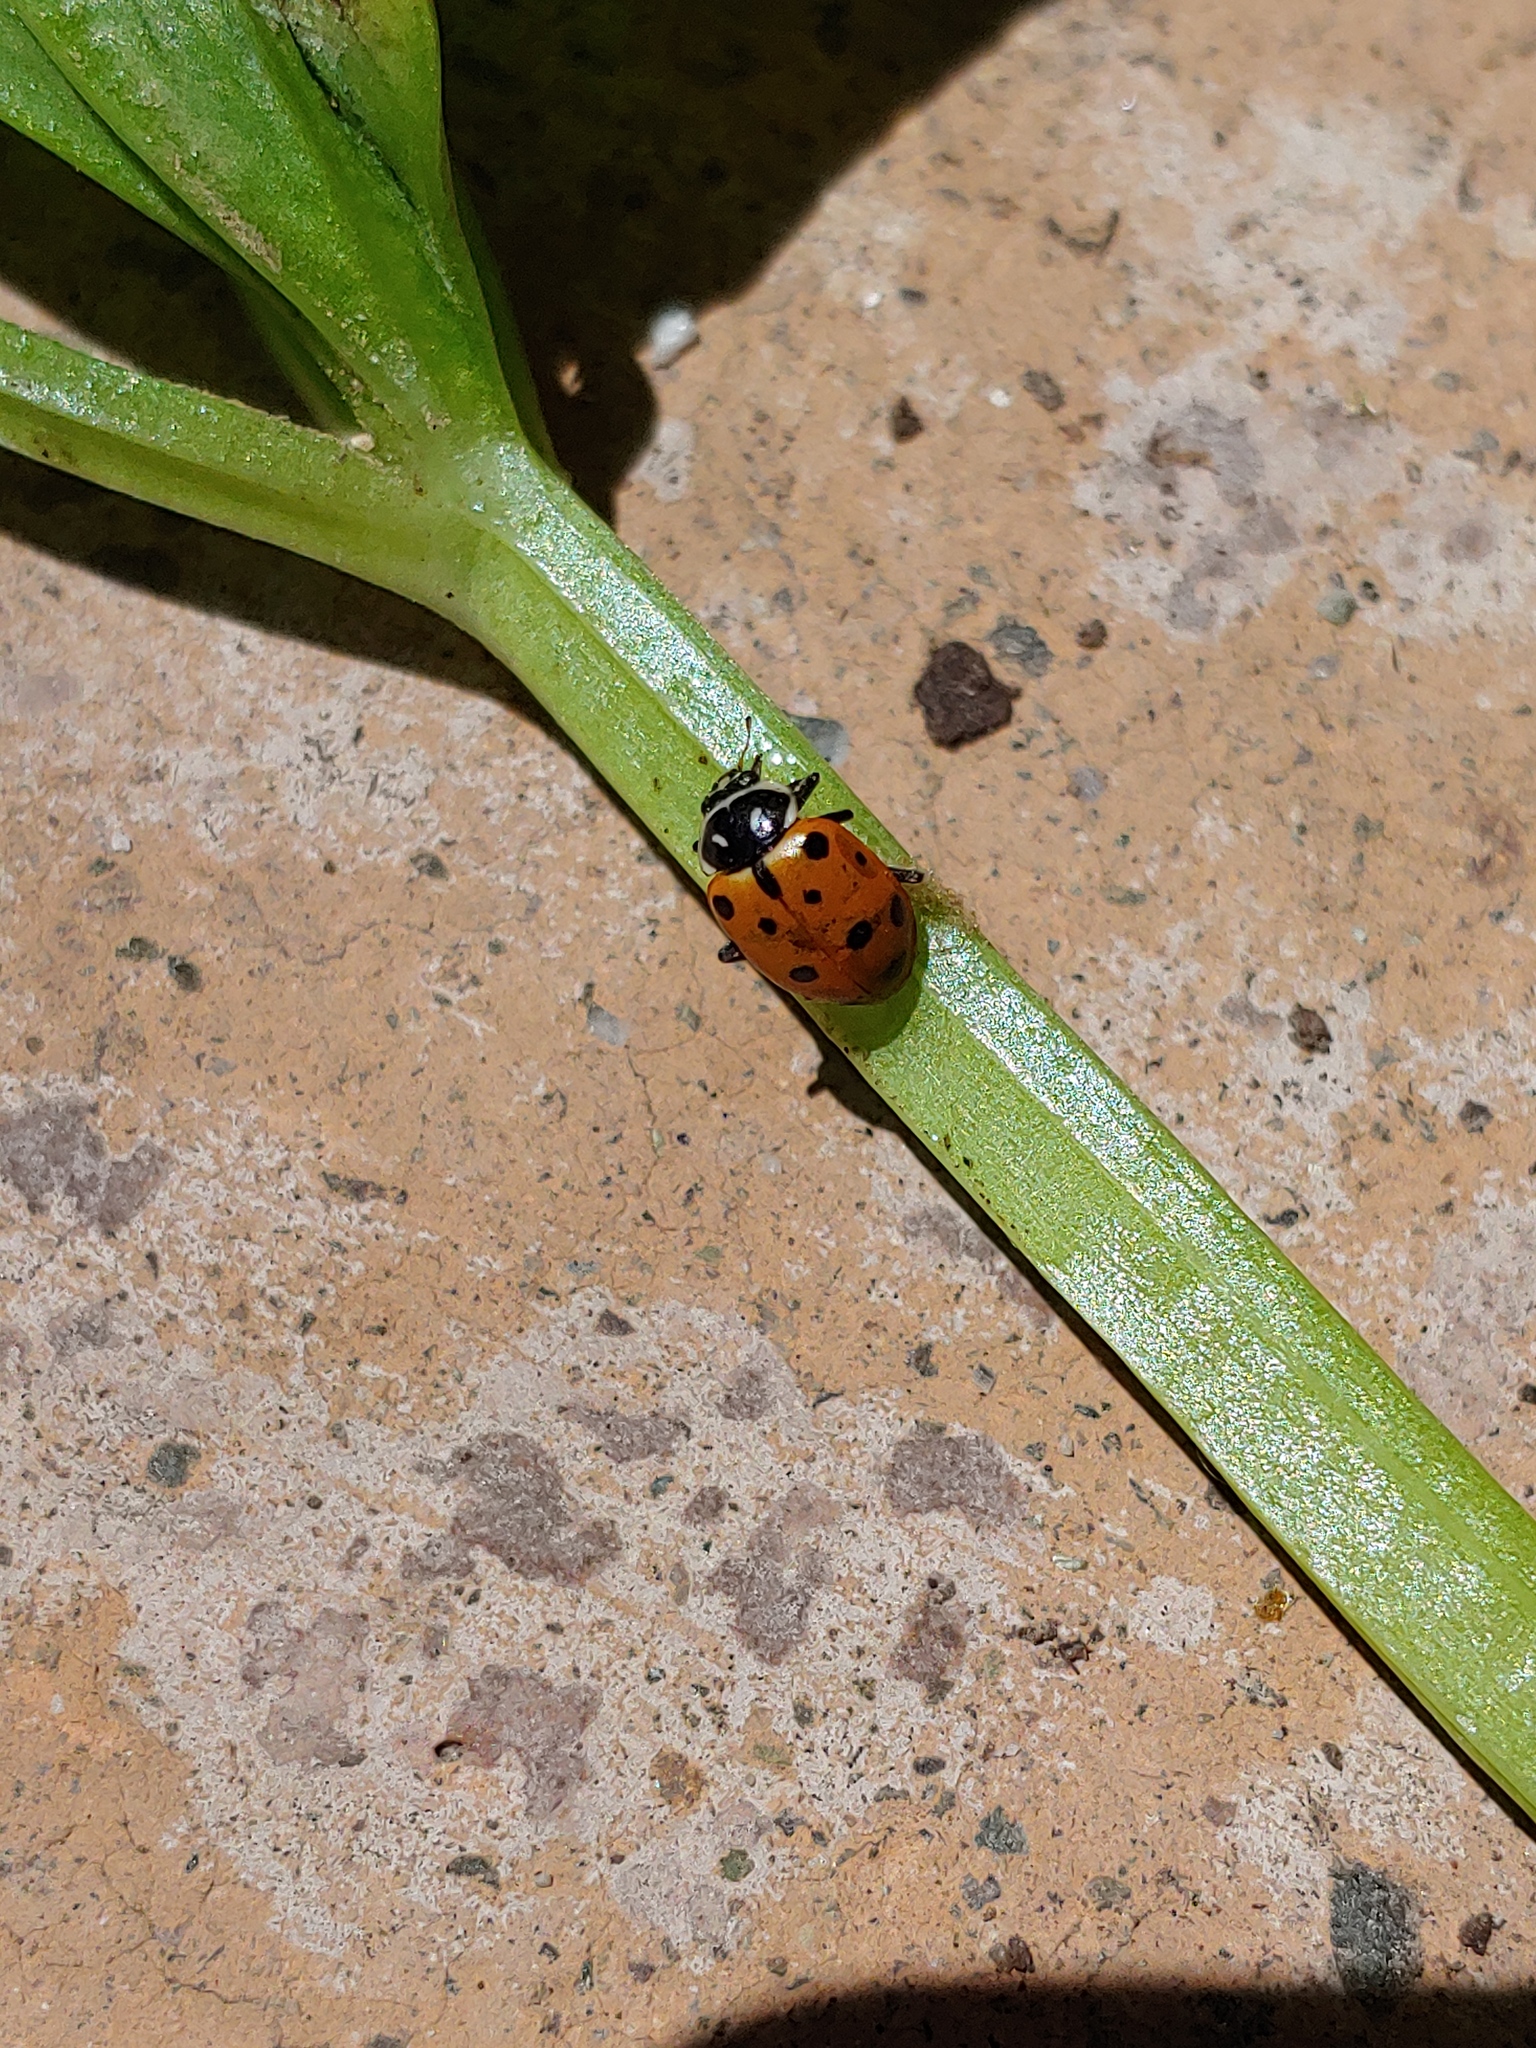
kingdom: Animalia
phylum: Arthropoda
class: Insecta
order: Coleoptera
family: Coccinellidae
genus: Hippodamia
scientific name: Hippodamia convergens
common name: Convergent lady beetle
